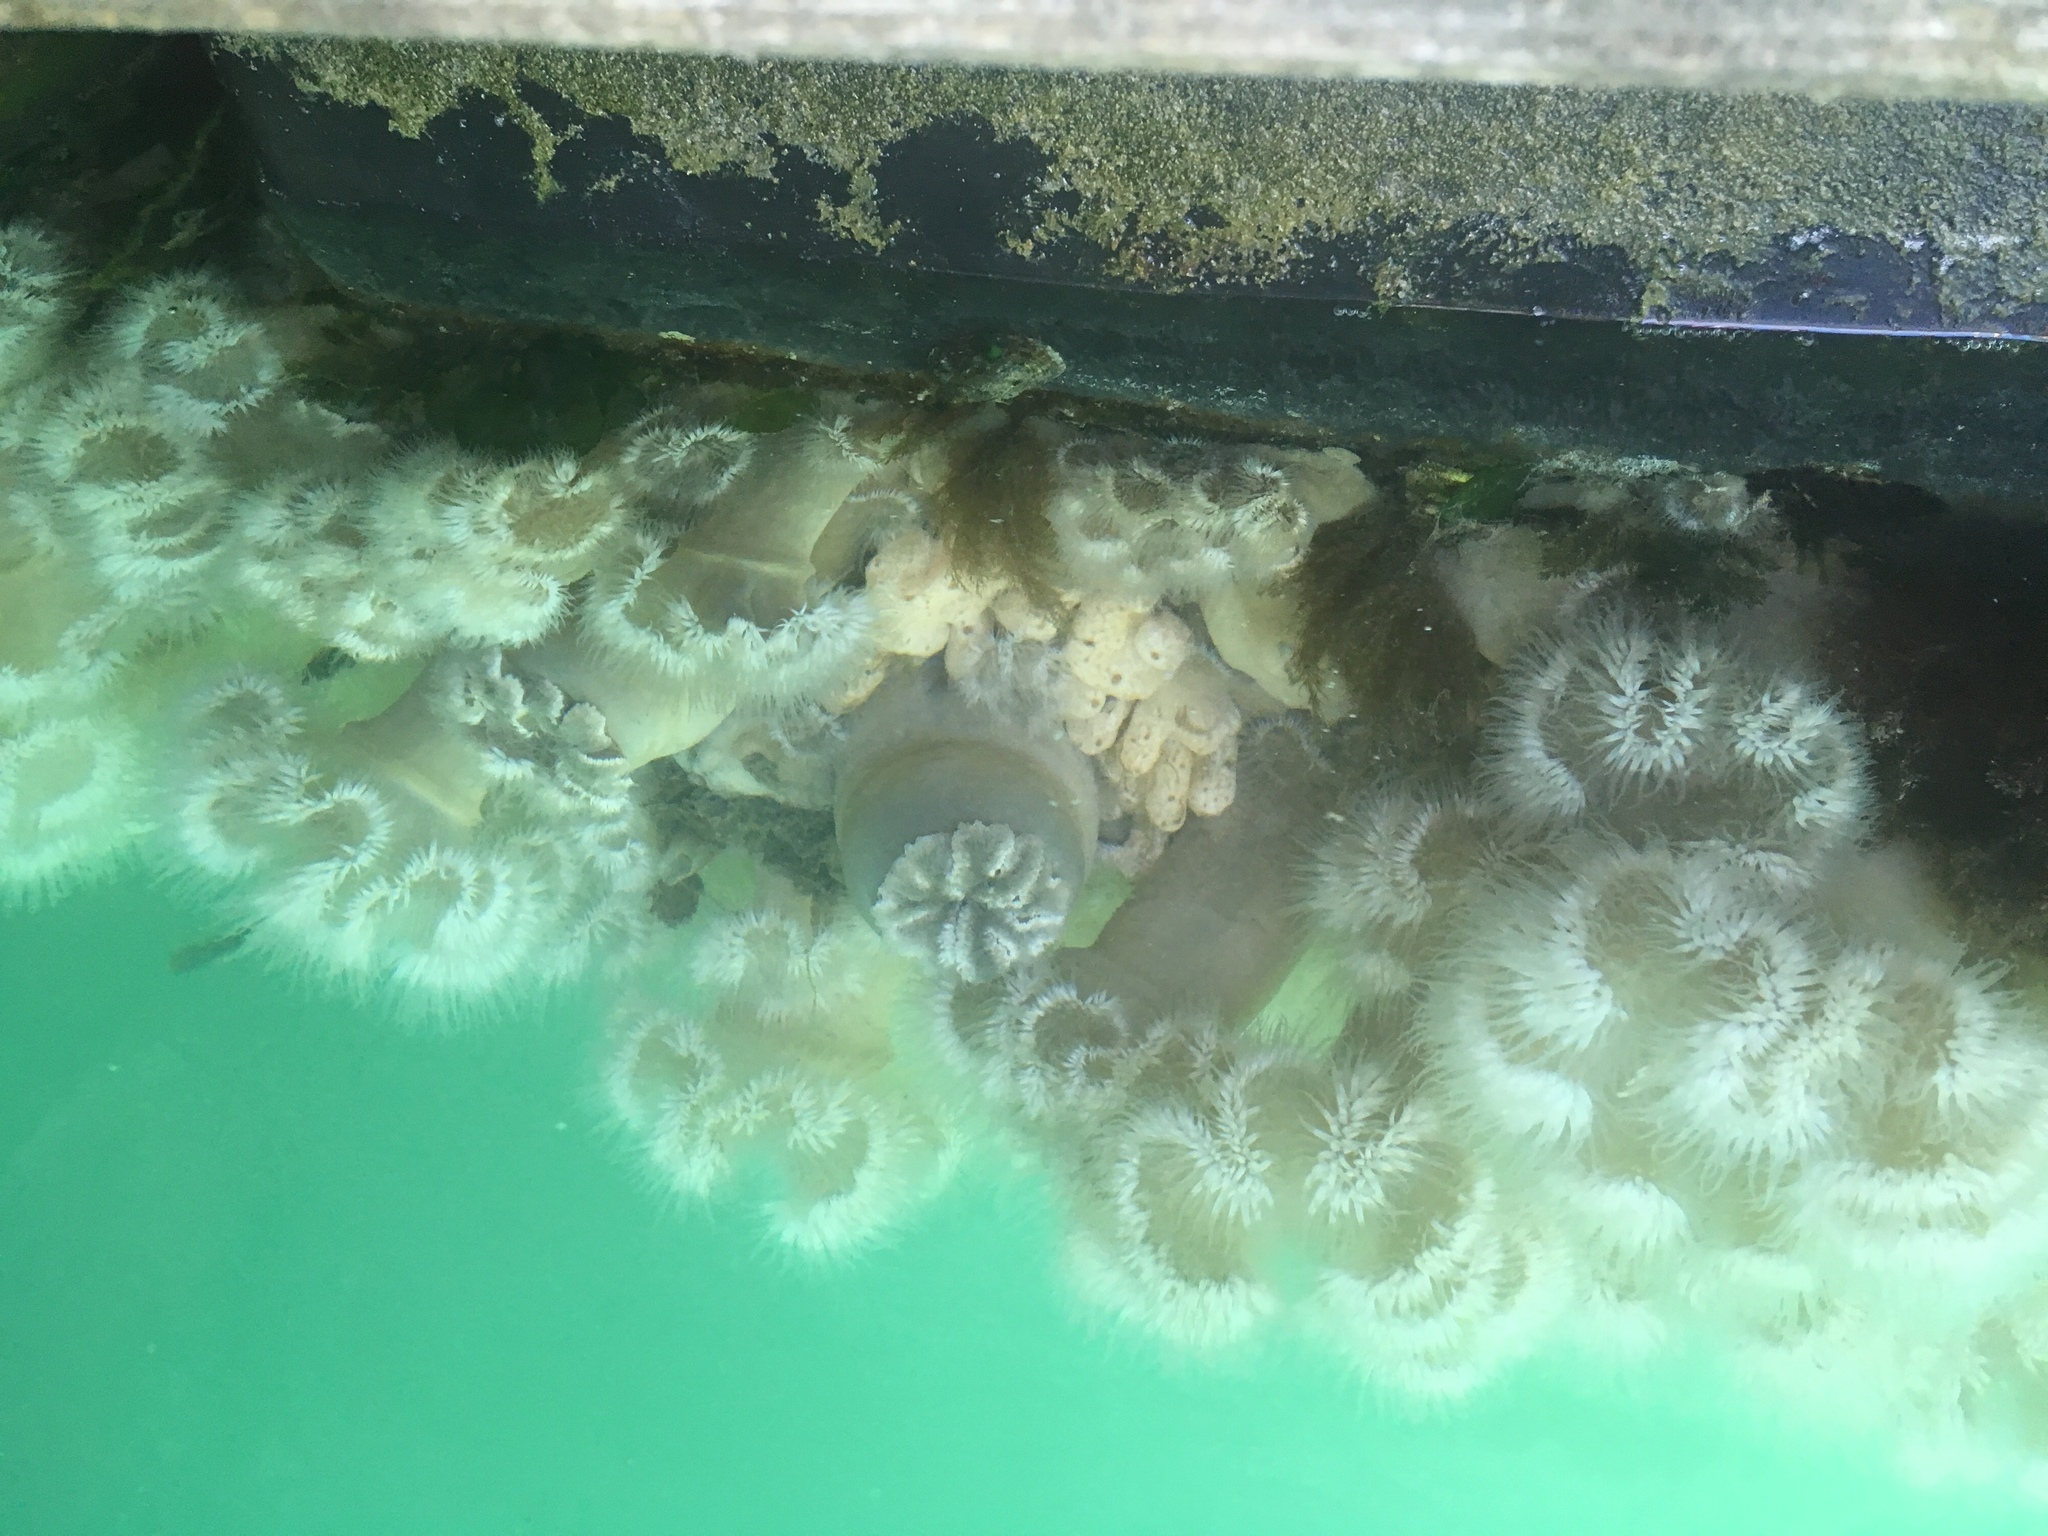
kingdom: Animalia
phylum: Cnidaria
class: Anthozoa
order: Actiniaria
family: Metridiidae
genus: Metridium
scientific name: Metridium farcimen
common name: Gigantic anemone
